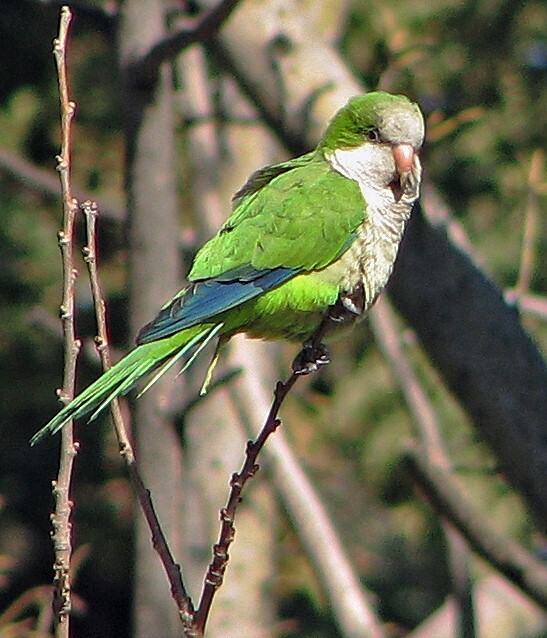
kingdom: Animalia
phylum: Chordata
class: Aves
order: Psittaciformes
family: Psittacidae
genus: Myiopsitta
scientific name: Myiopsitta monachus
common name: Monk parakeet
